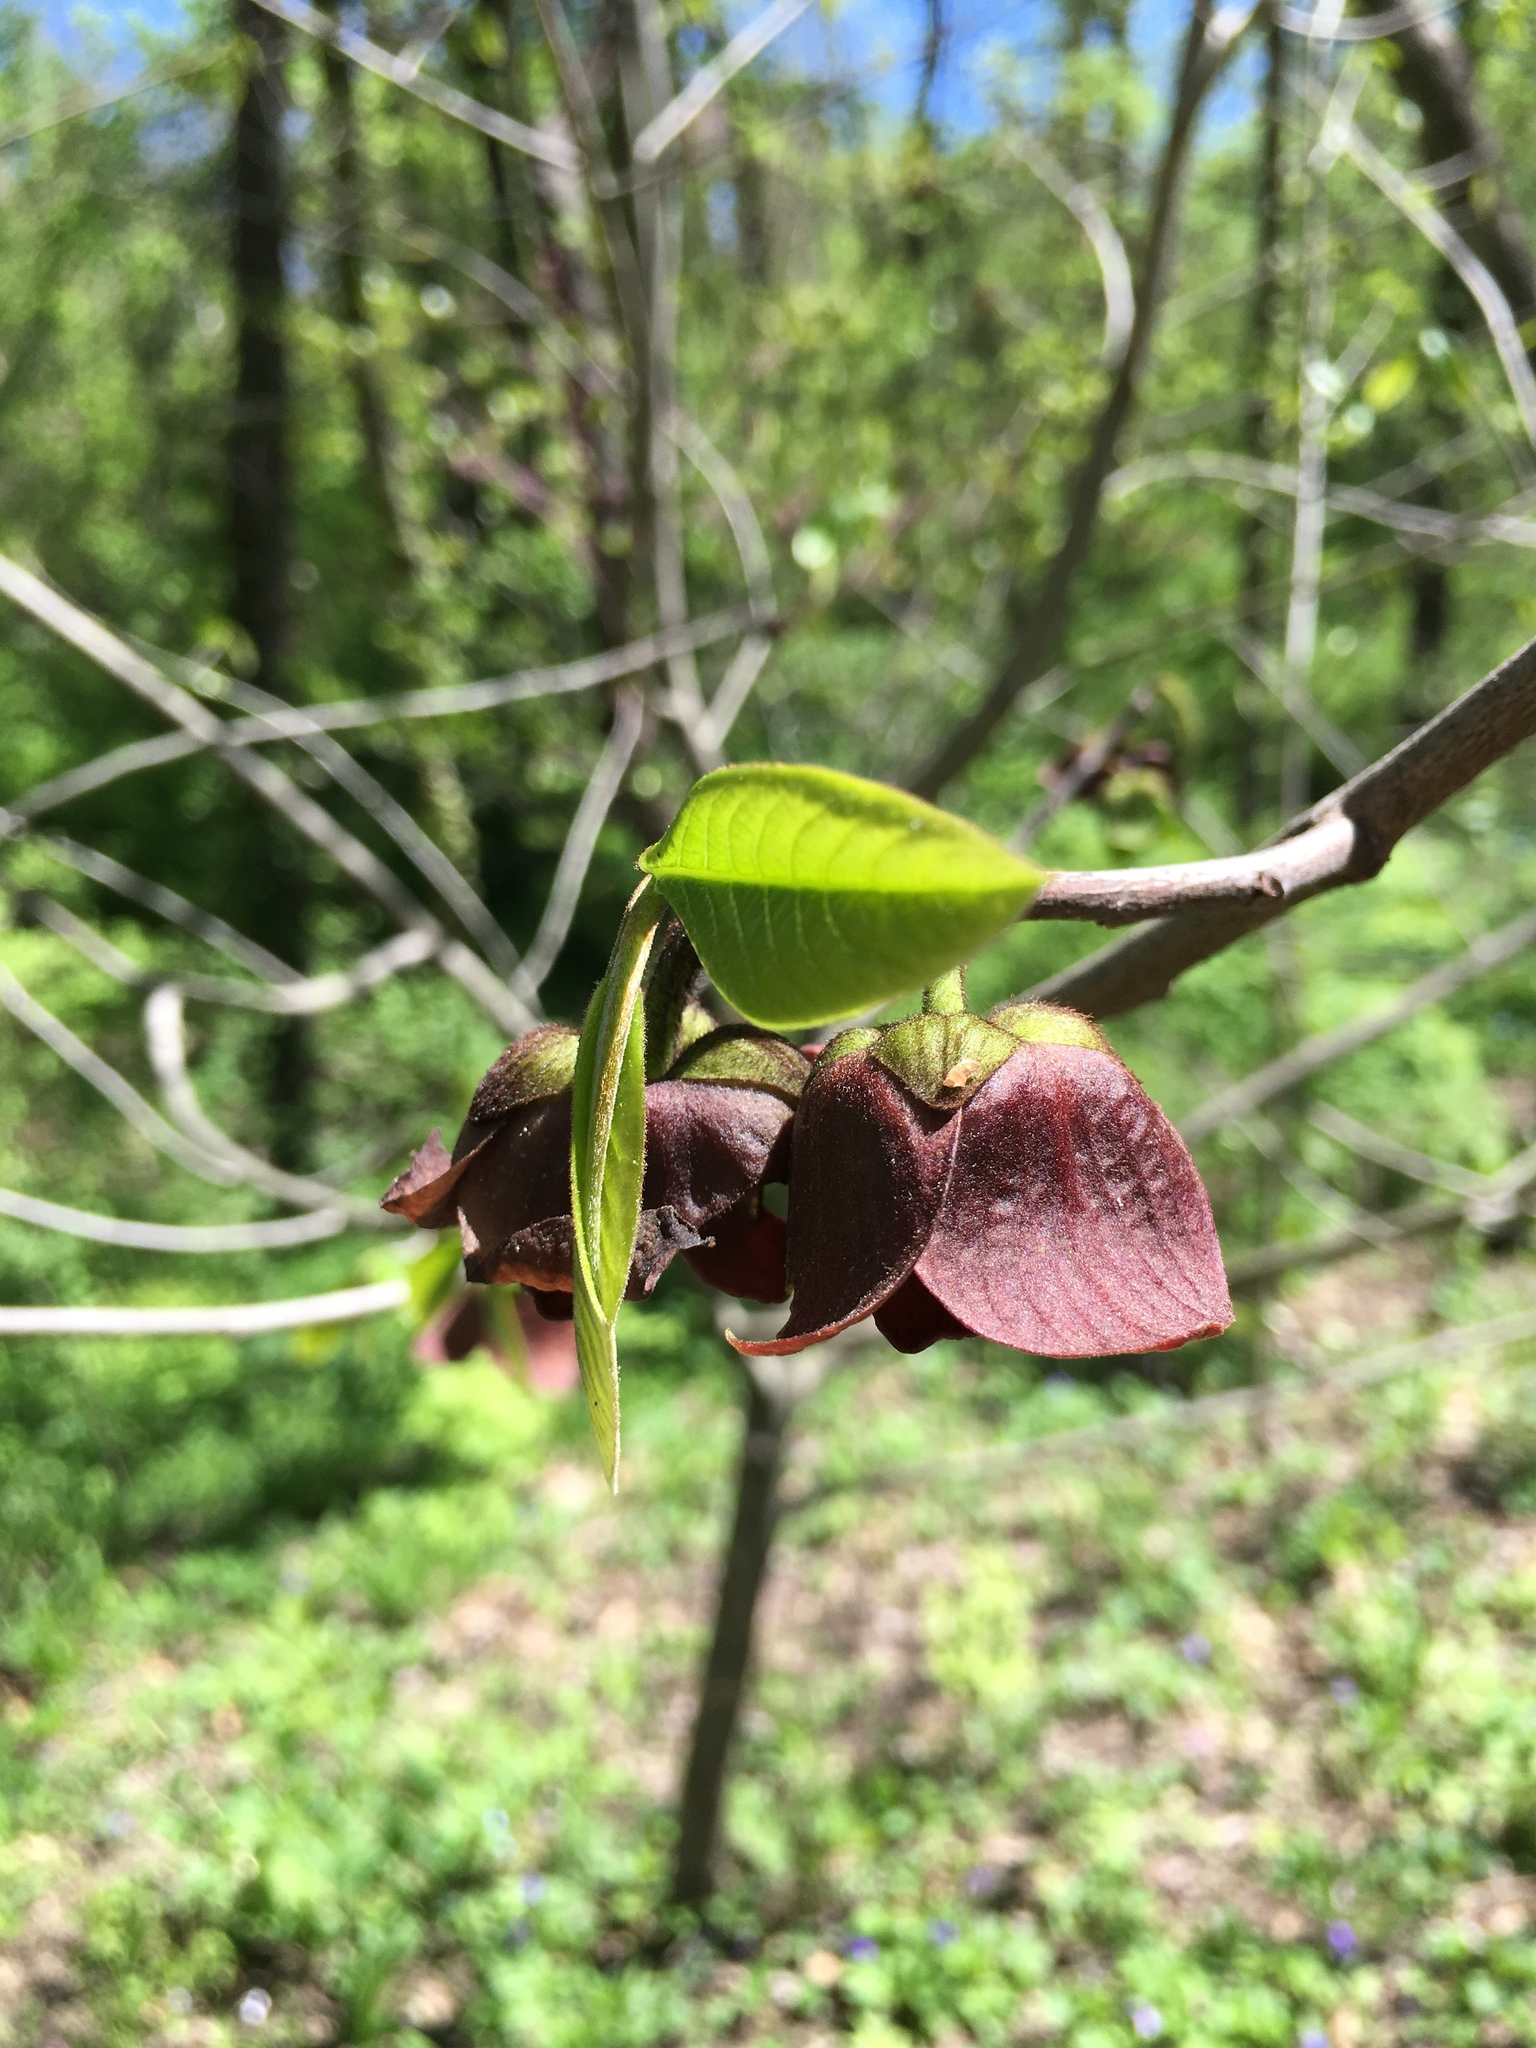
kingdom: Plantae
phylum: Tracheophyta
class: Magnoliopsida
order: Magnoliales
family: Annonaceae
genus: Asimina
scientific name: Asimina triloba
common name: Dog-banana
